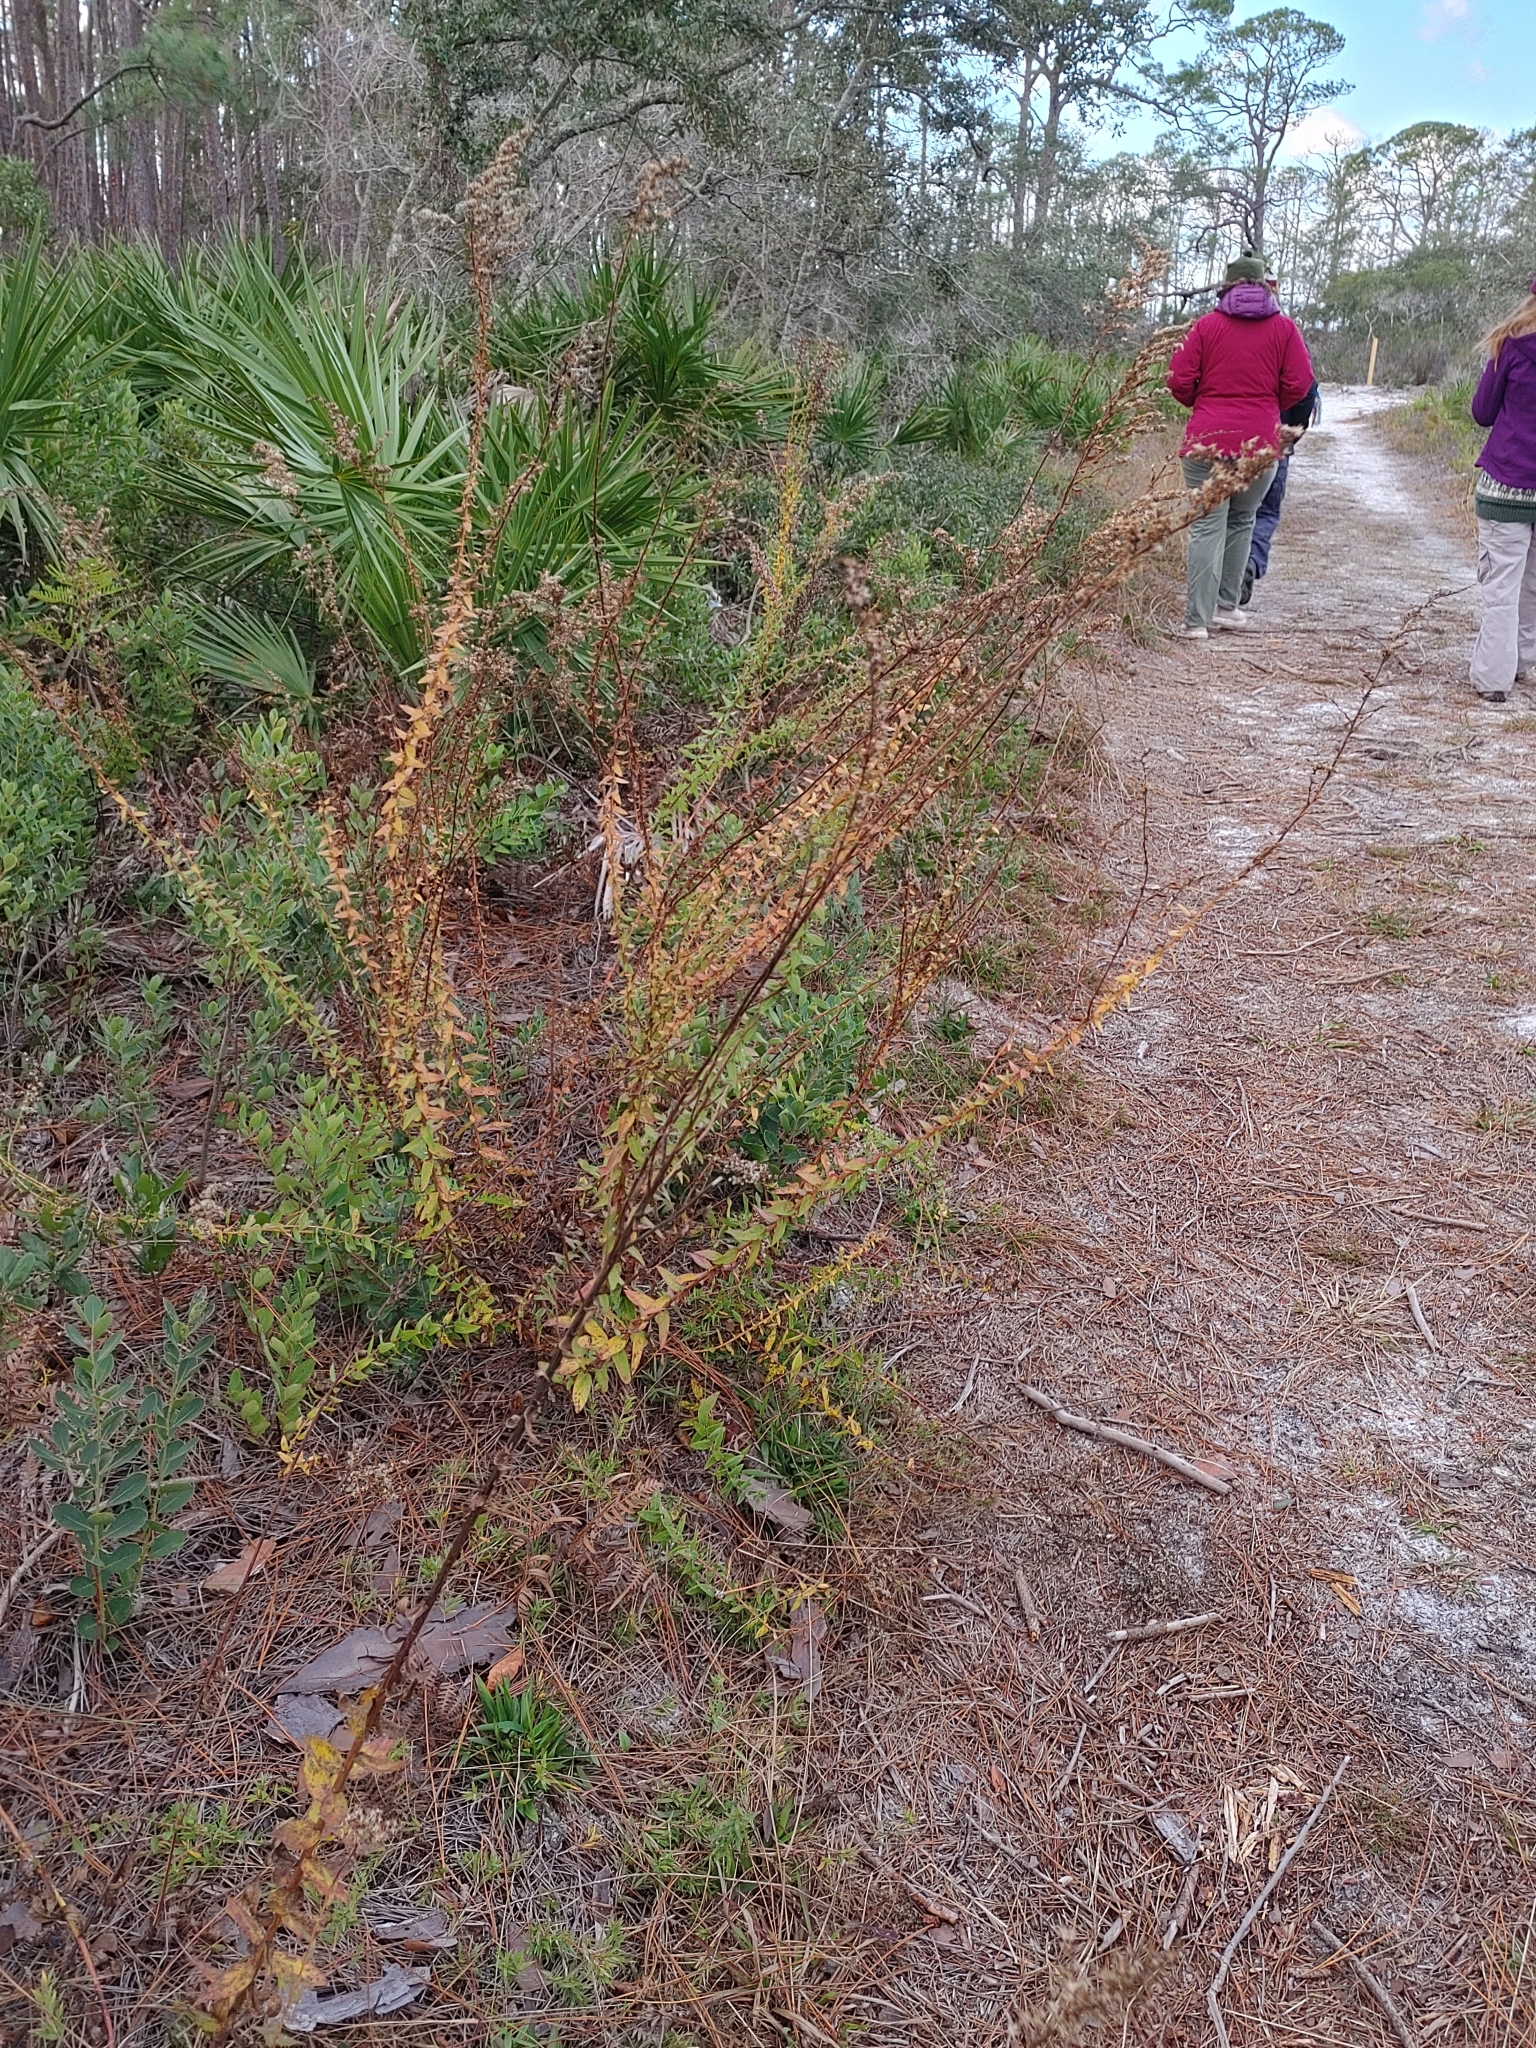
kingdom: Plantae
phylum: Tracheophyta
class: Magnoliopsida
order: Asterales
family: Asteraceae
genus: Solidago
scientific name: Solidago odora
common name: Anise-scented goldenrod
